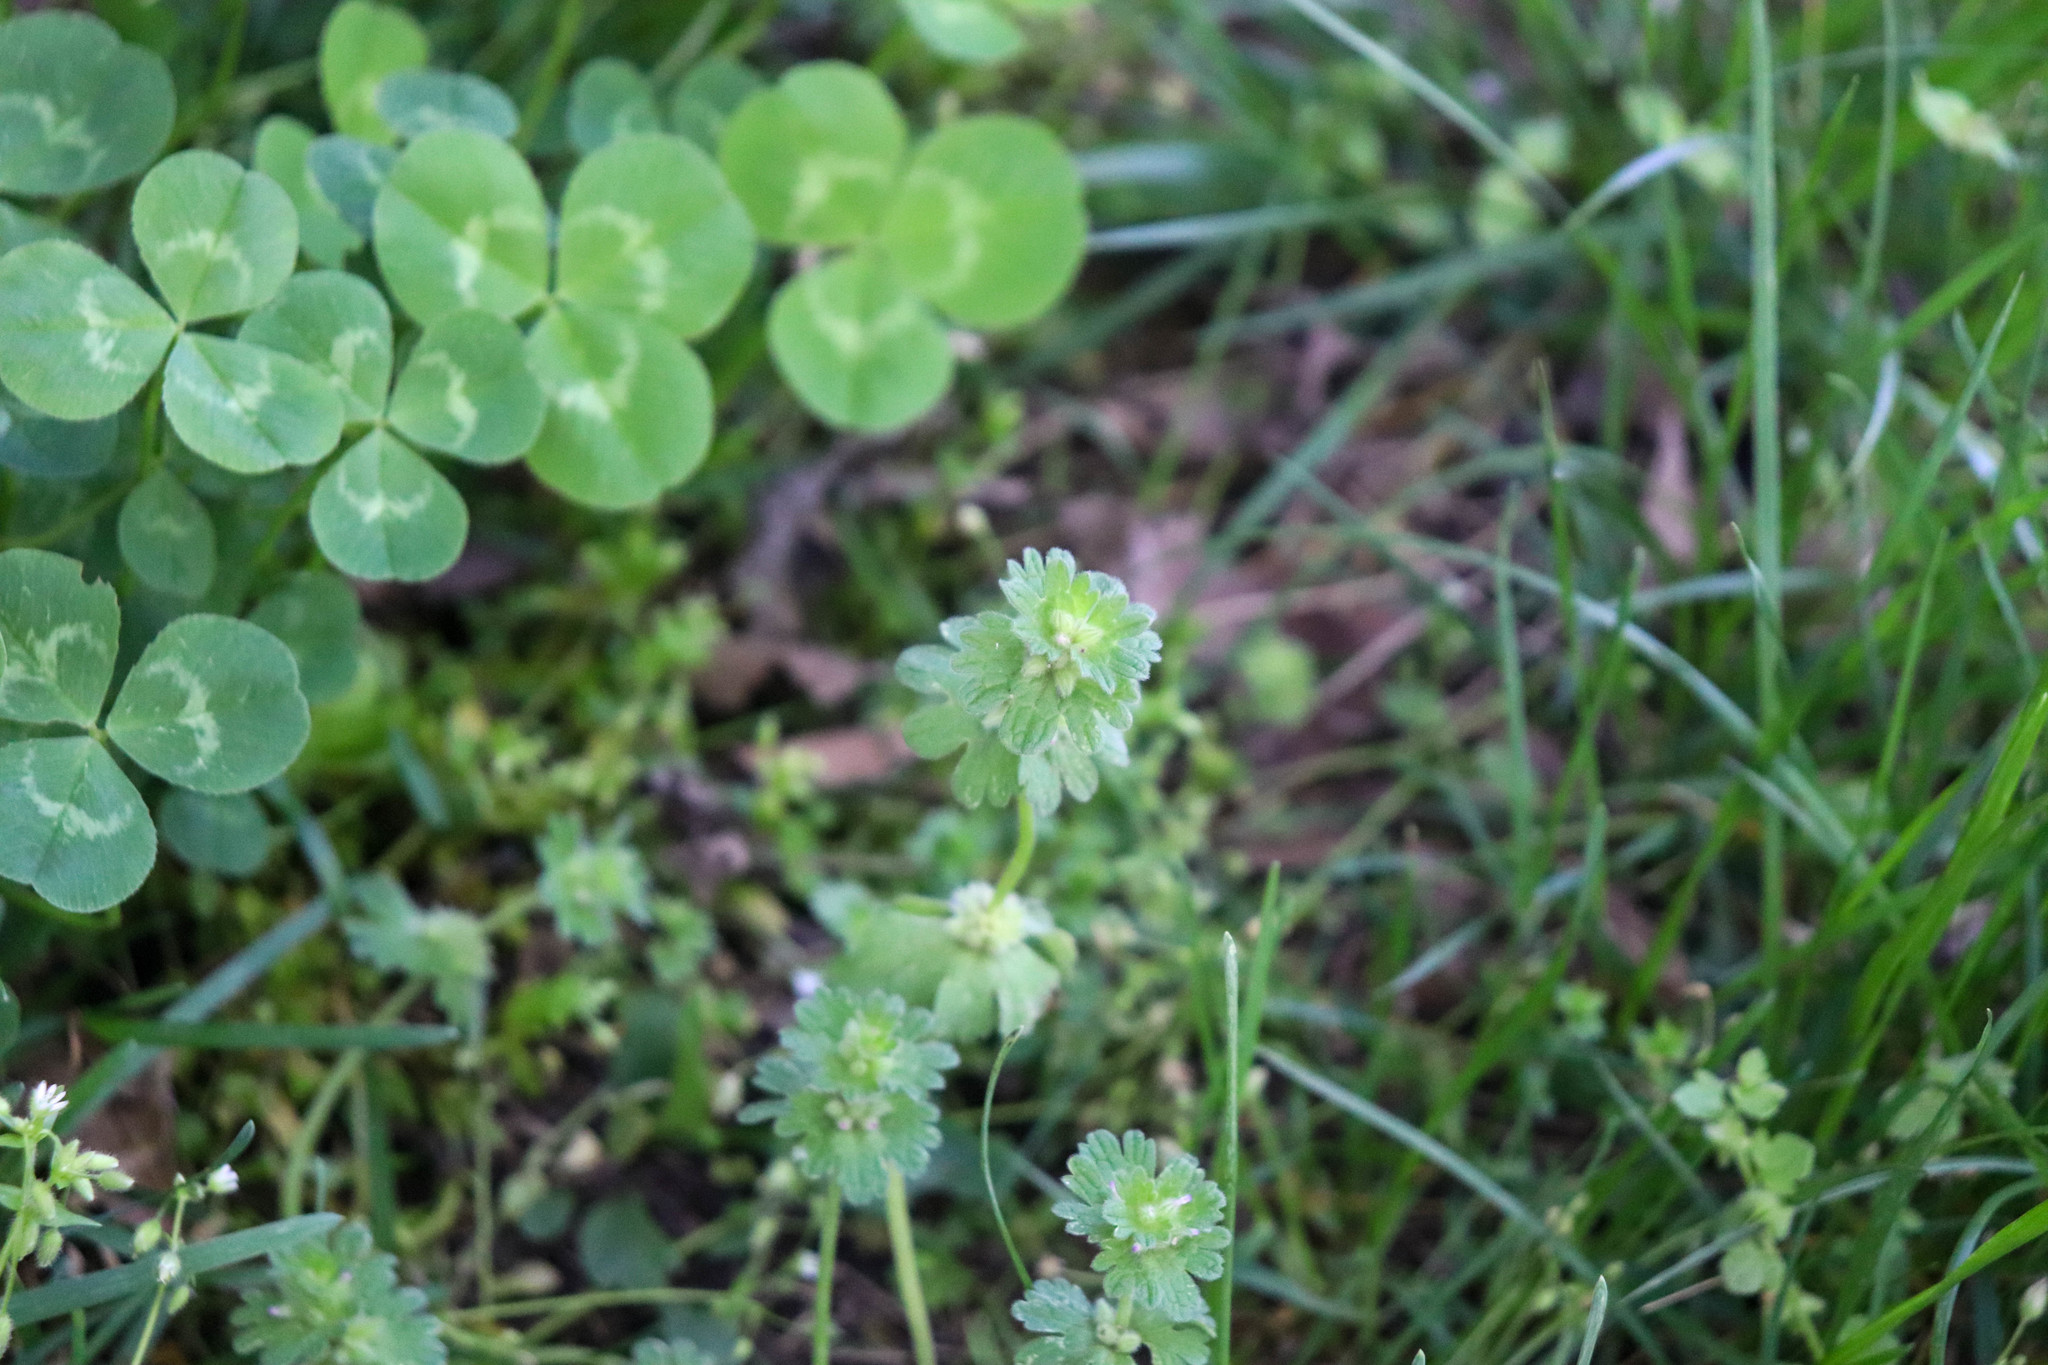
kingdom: Plantae
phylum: Tracheophyta
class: Magnoliopsida
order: Lamiales
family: Lamiaceae
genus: Lamium
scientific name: Lamium amplexicaule
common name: Henbit dead-nettle
